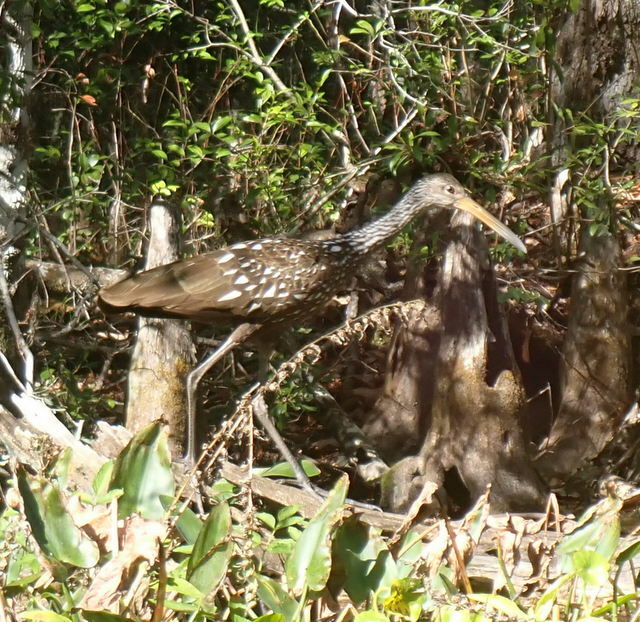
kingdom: Animalia
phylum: Chordata
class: Aves
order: Gruiformes
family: Aramidae
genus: Aramus
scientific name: Aramus guarauna
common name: Limpkin
